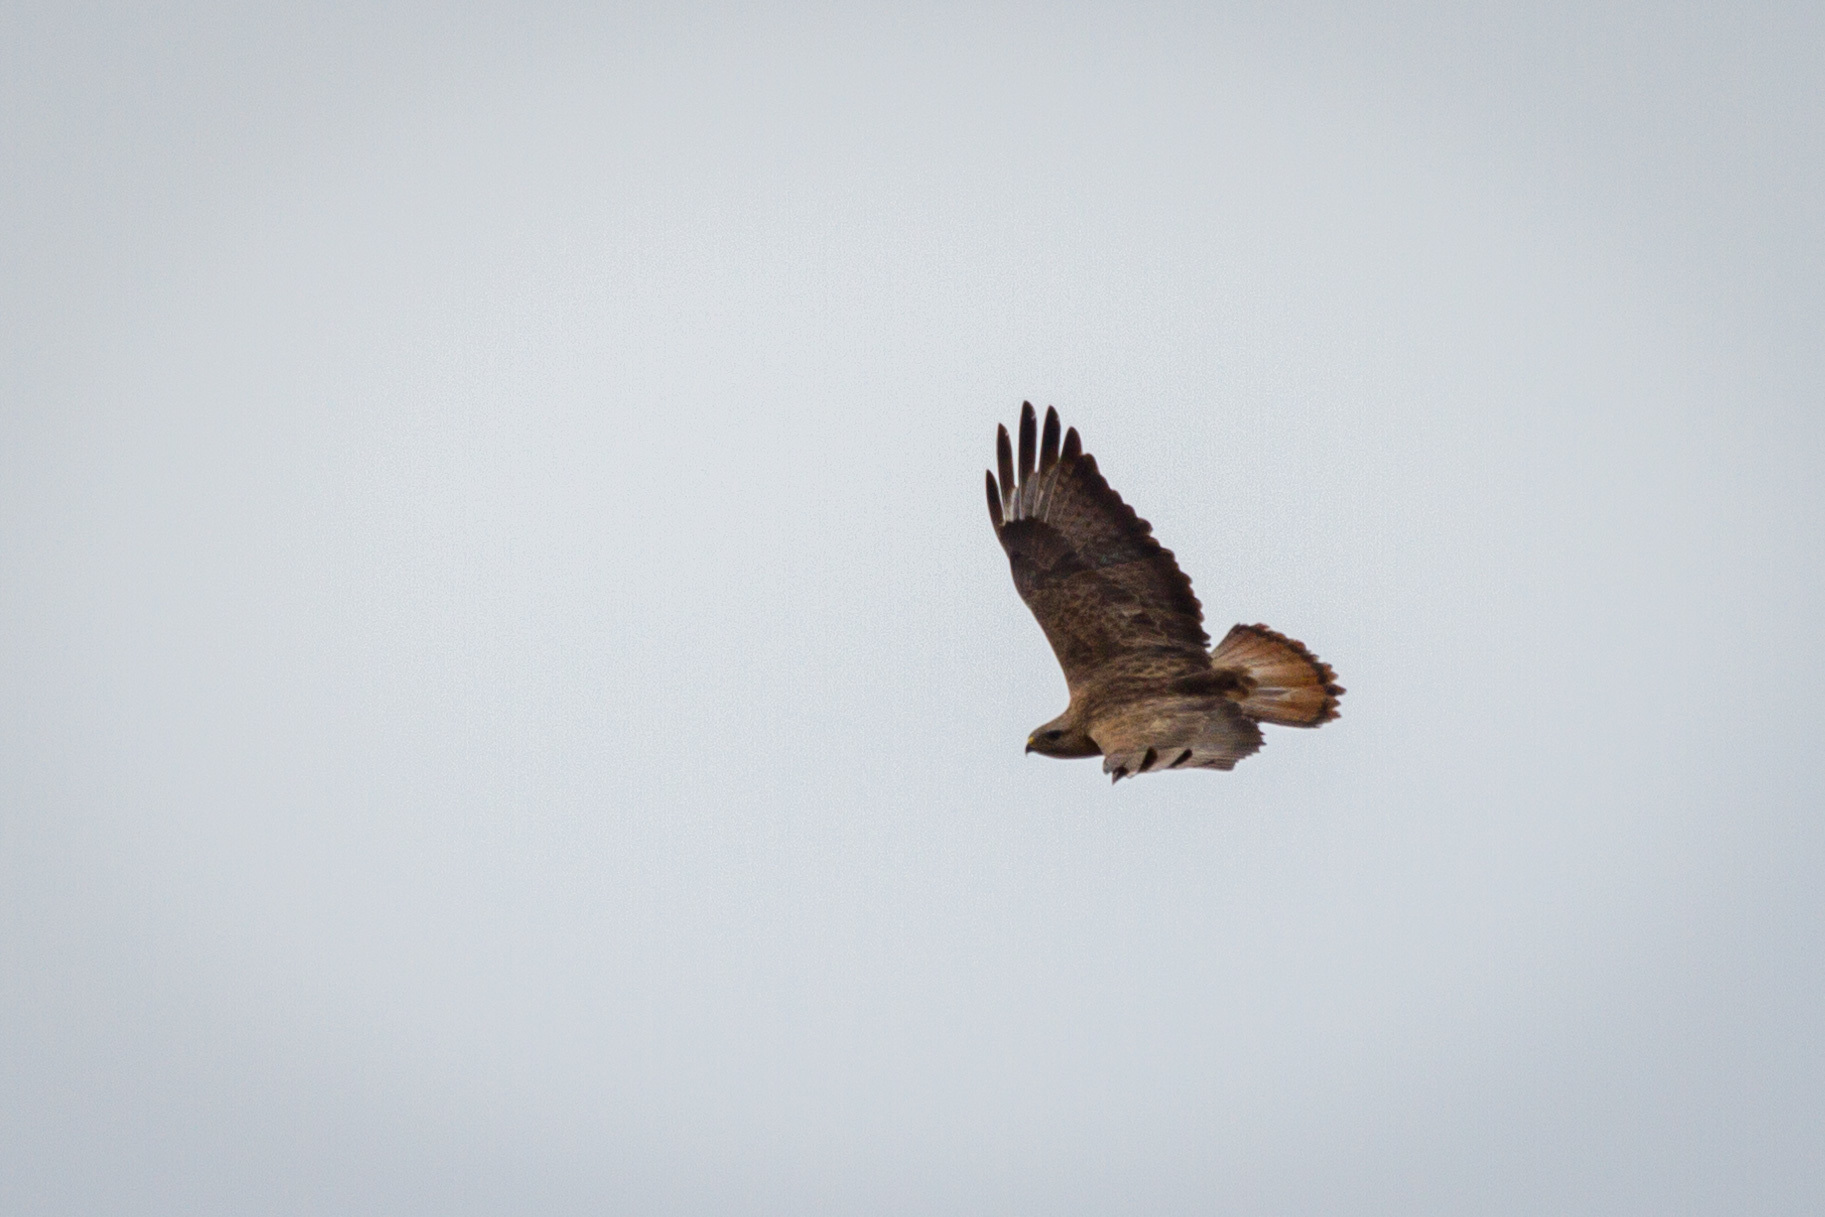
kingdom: Animalia
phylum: Chordata
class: Aves
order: Accipitriformes
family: Accipitridae
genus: Buteo
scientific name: Buteo buteo
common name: Common buzzard
